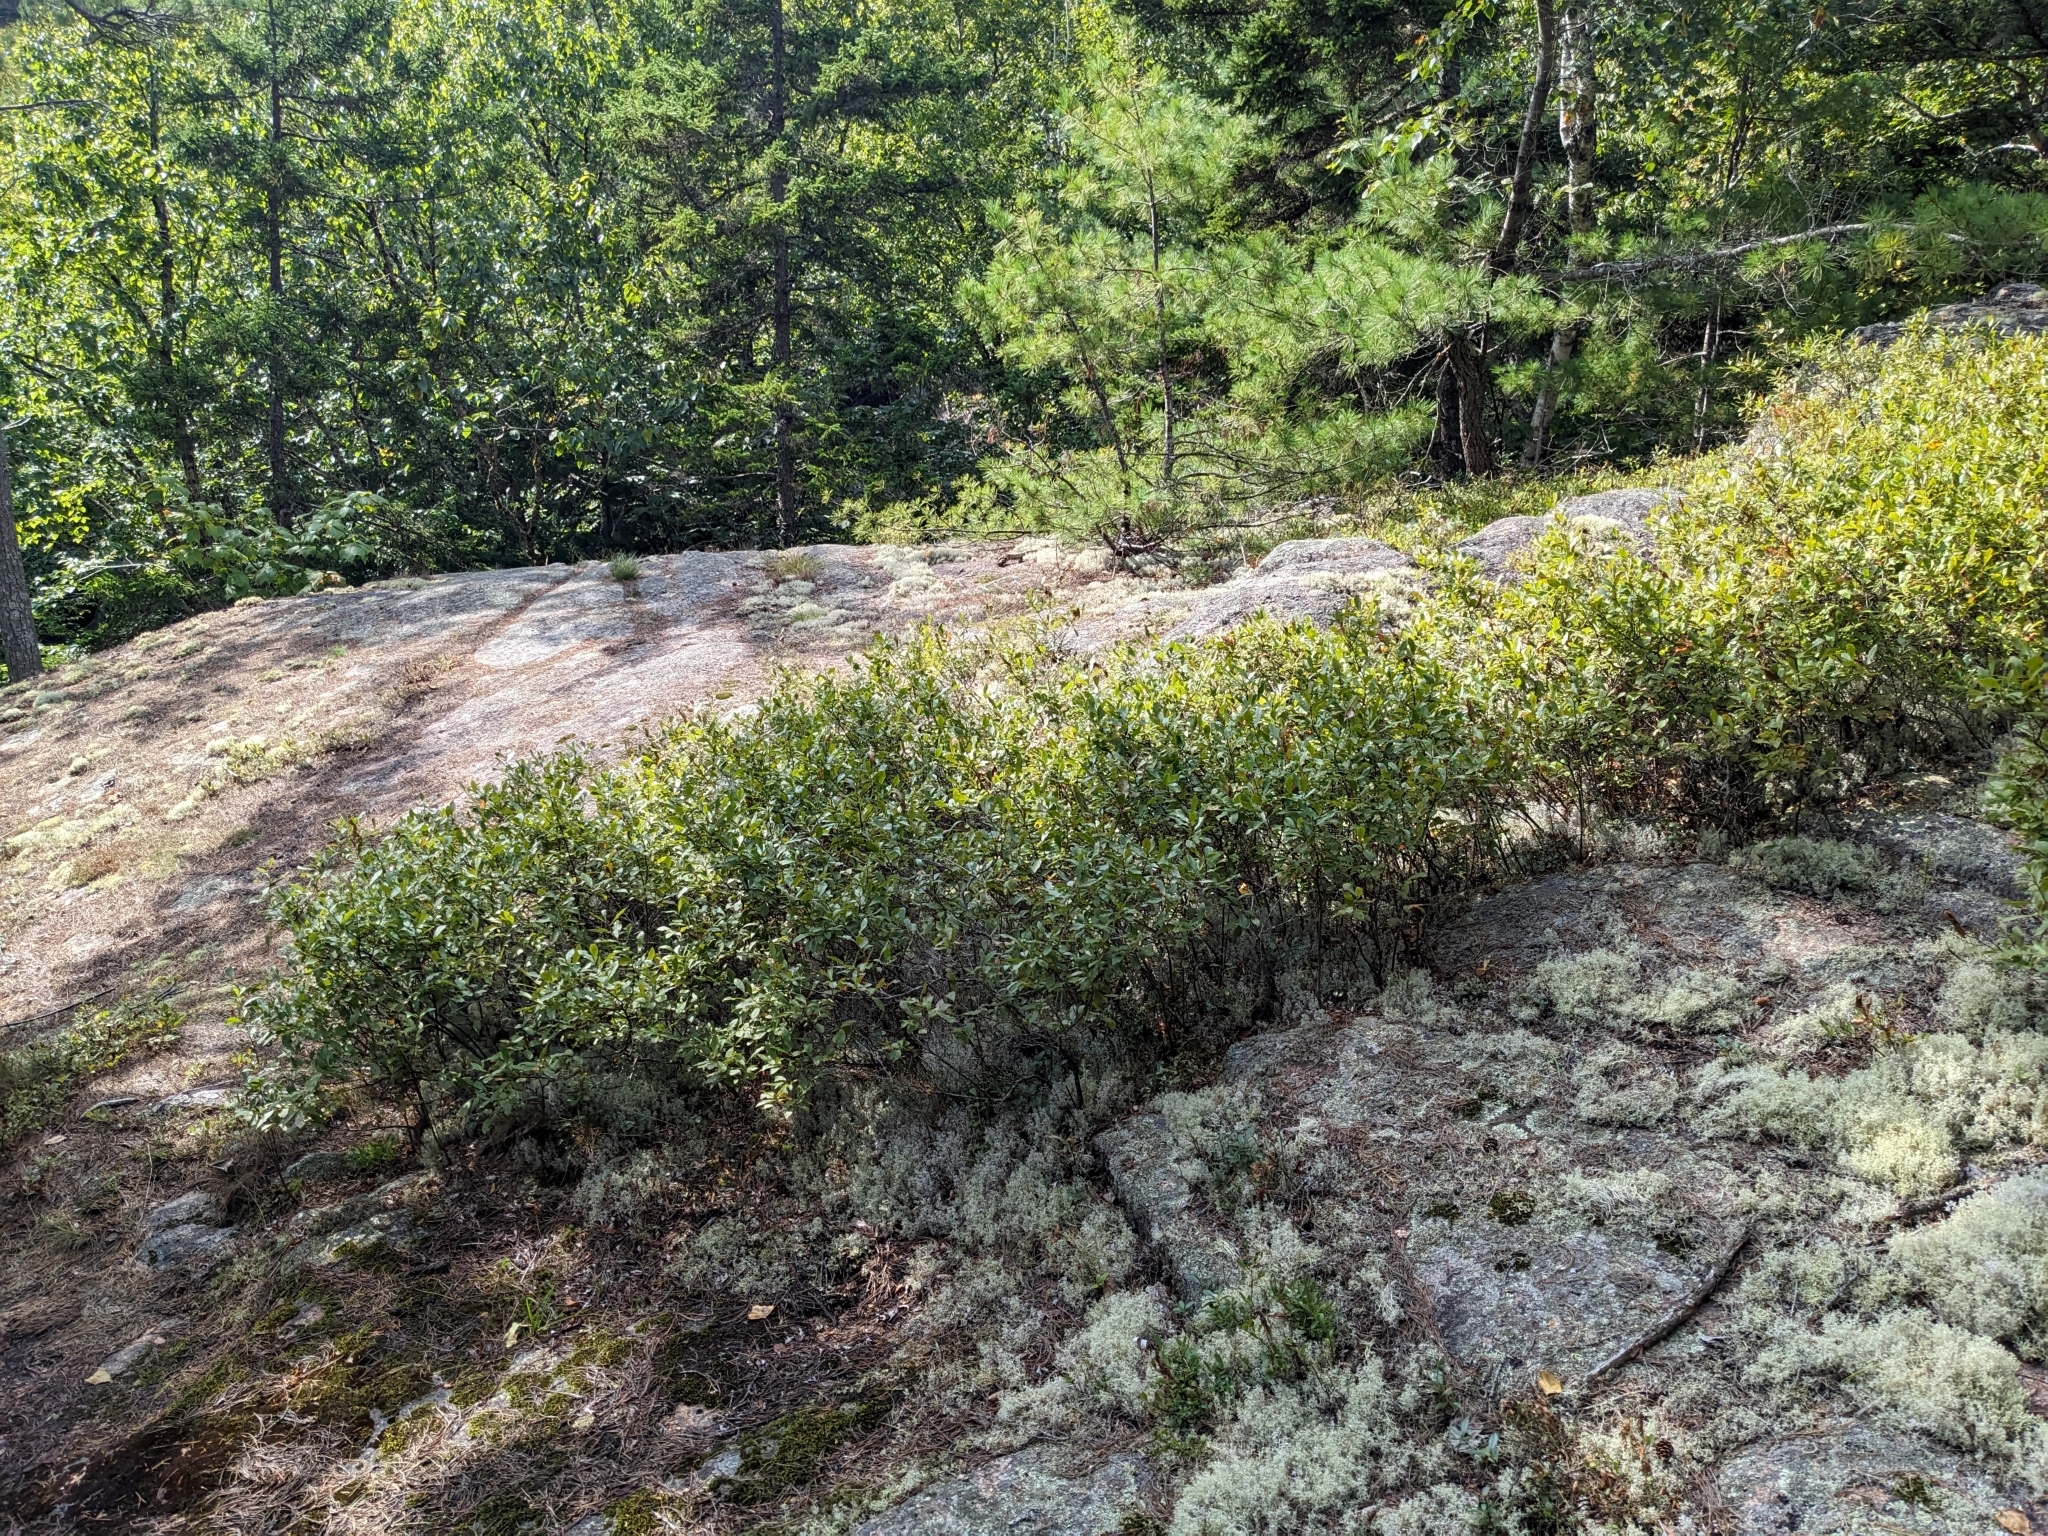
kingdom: Plantae
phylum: Tracheophyta
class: Magnoliopsida
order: Aquifoliales
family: Aquifoliaceae
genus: Ilex
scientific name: Ilex mucronata
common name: Catberry
